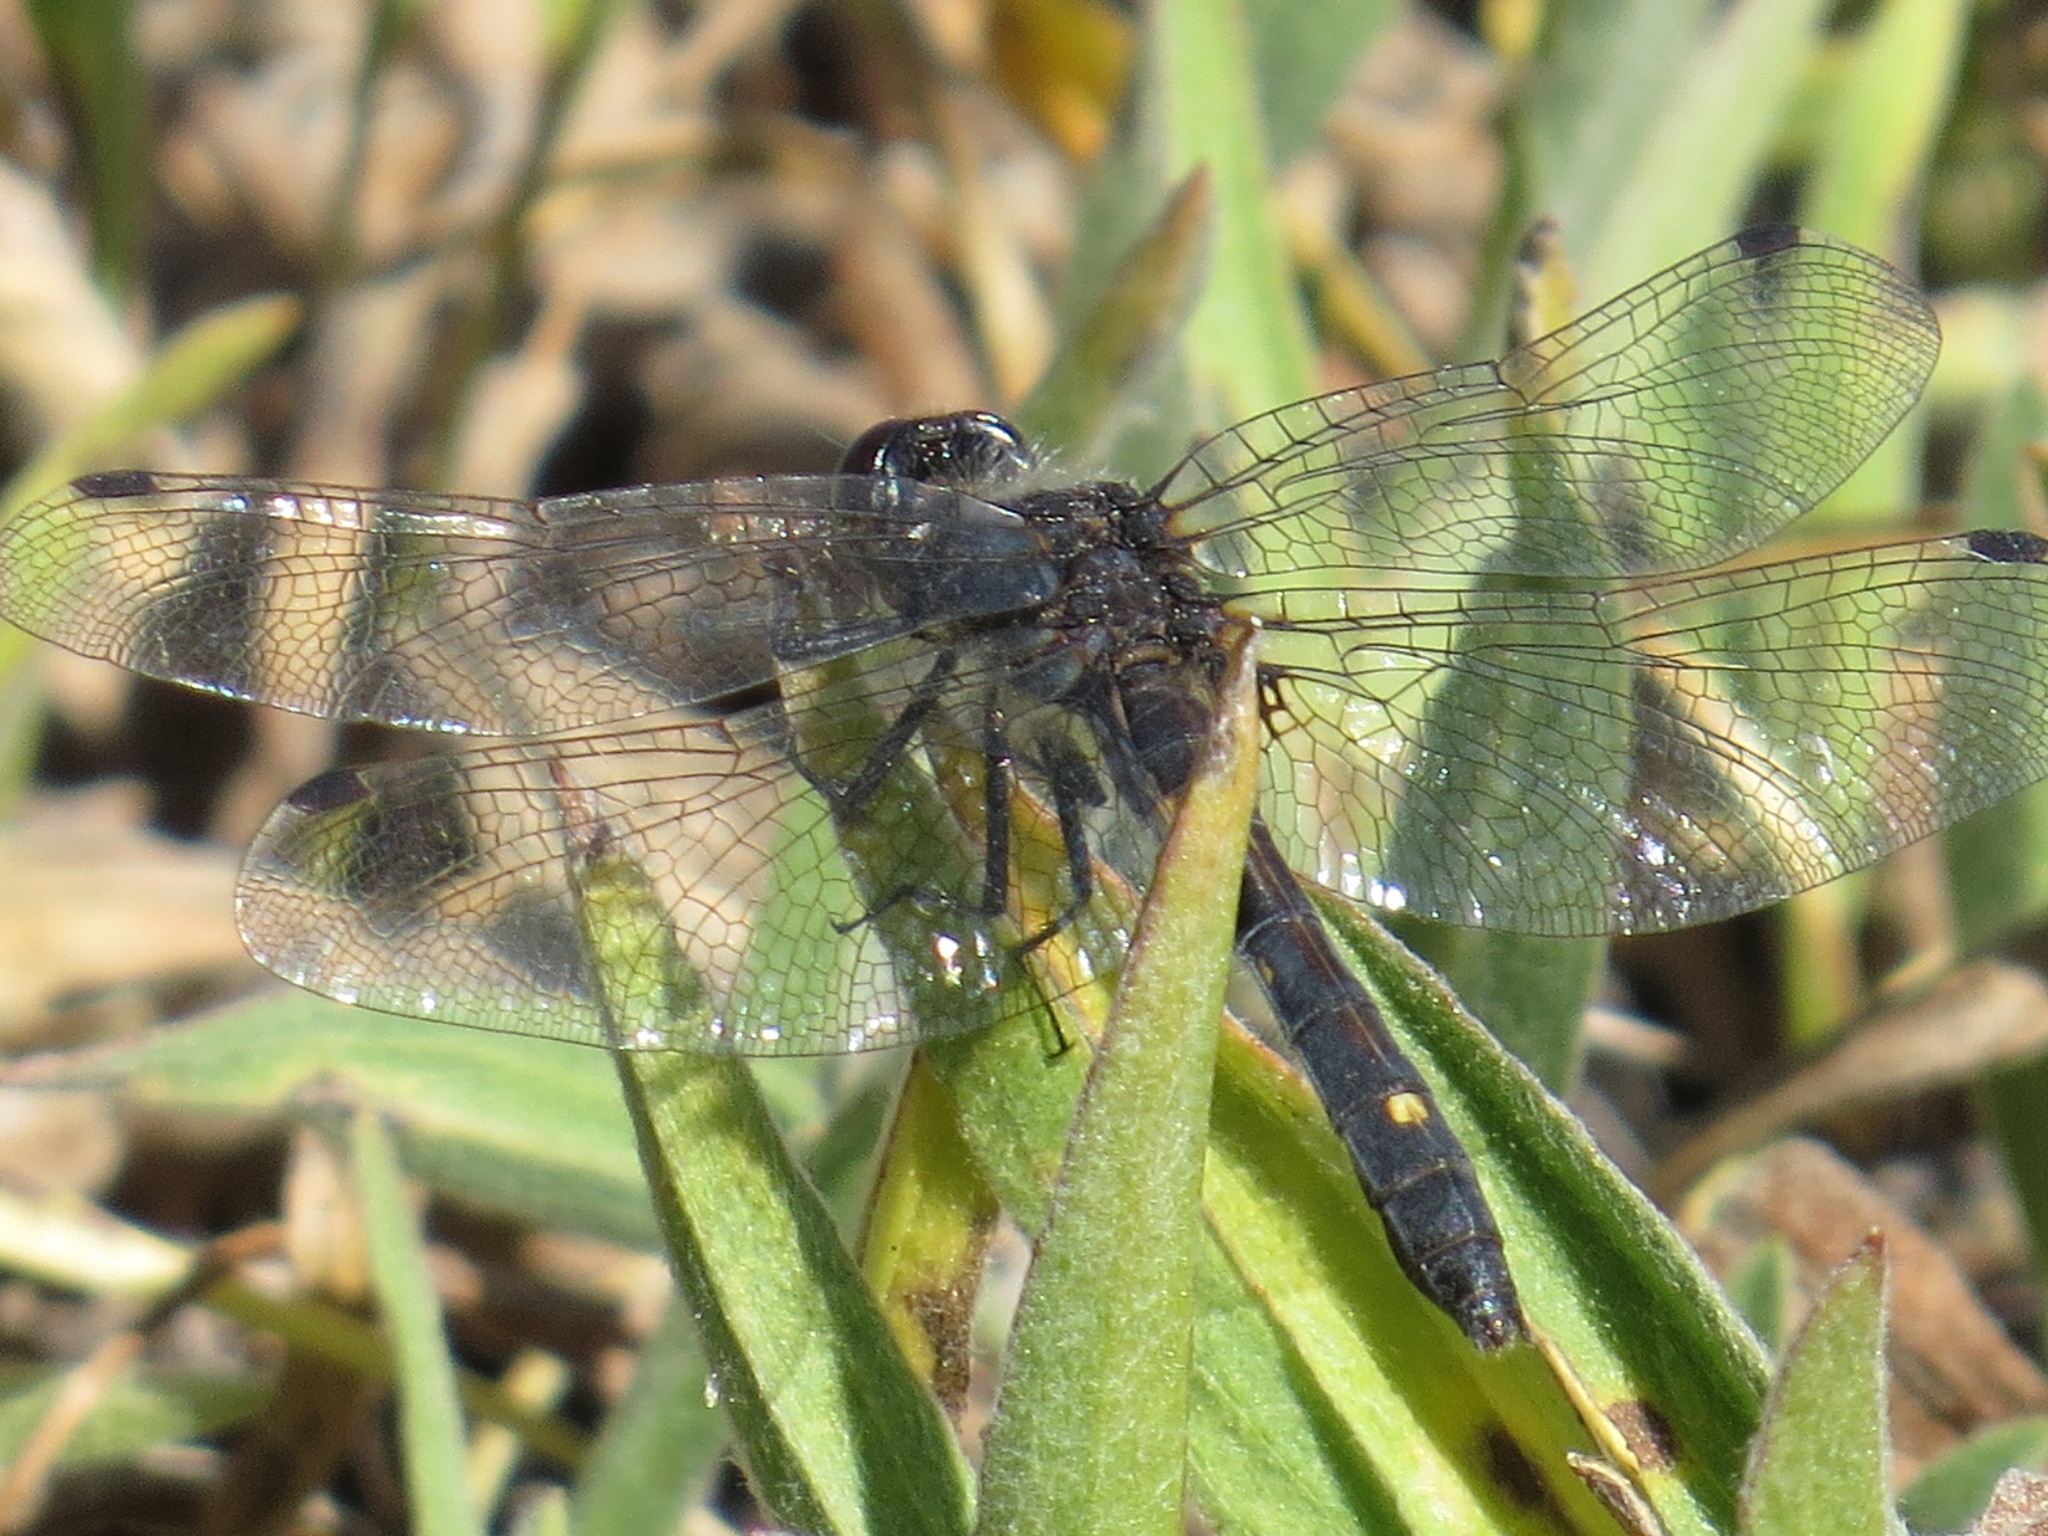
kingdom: Animalia
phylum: Arthropoda
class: Insecta
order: Odonata
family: Libellulidae
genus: Leucorrhinia
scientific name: Leucorrhinia intacta
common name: Dot-tailed whiteface
